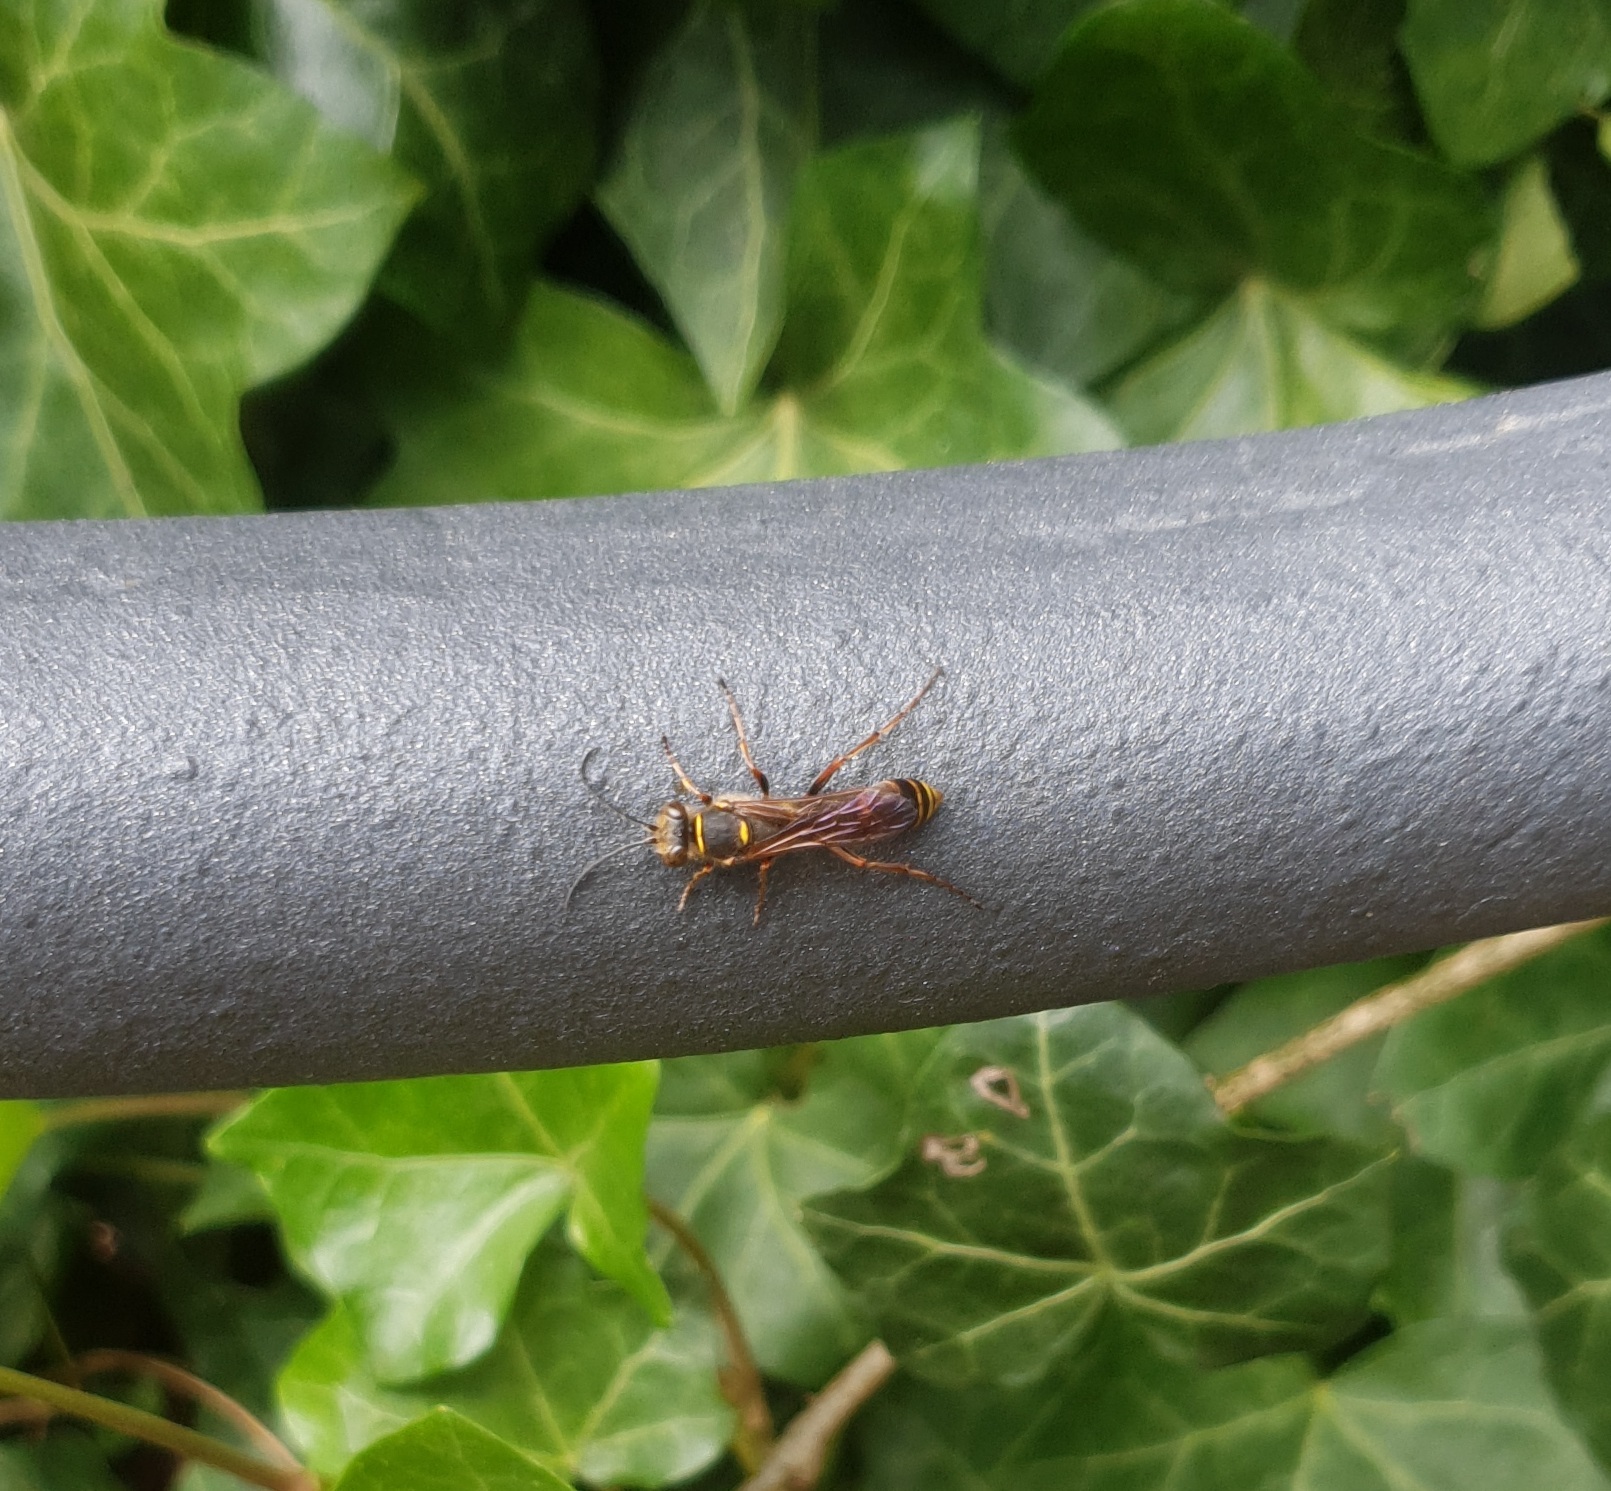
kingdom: Animalia
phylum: Arthropoda
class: Insecta
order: Hymenoptera
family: Sphecidae
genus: Sceliphron
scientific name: Sceliphron curvatum
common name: Pèlopèe
